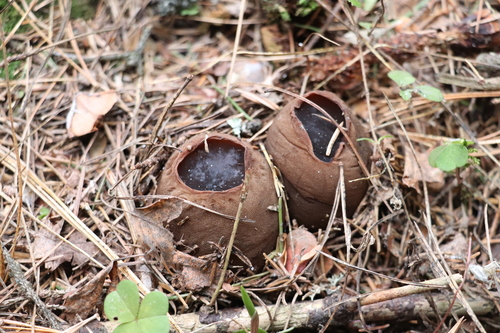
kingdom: Fungi
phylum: Ascomycota
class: Pezizomycetes
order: Pezizales
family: Sarcosomataceae
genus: Sarcosoma
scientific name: Sarcosoma globosum
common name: Charred-pancake cup
